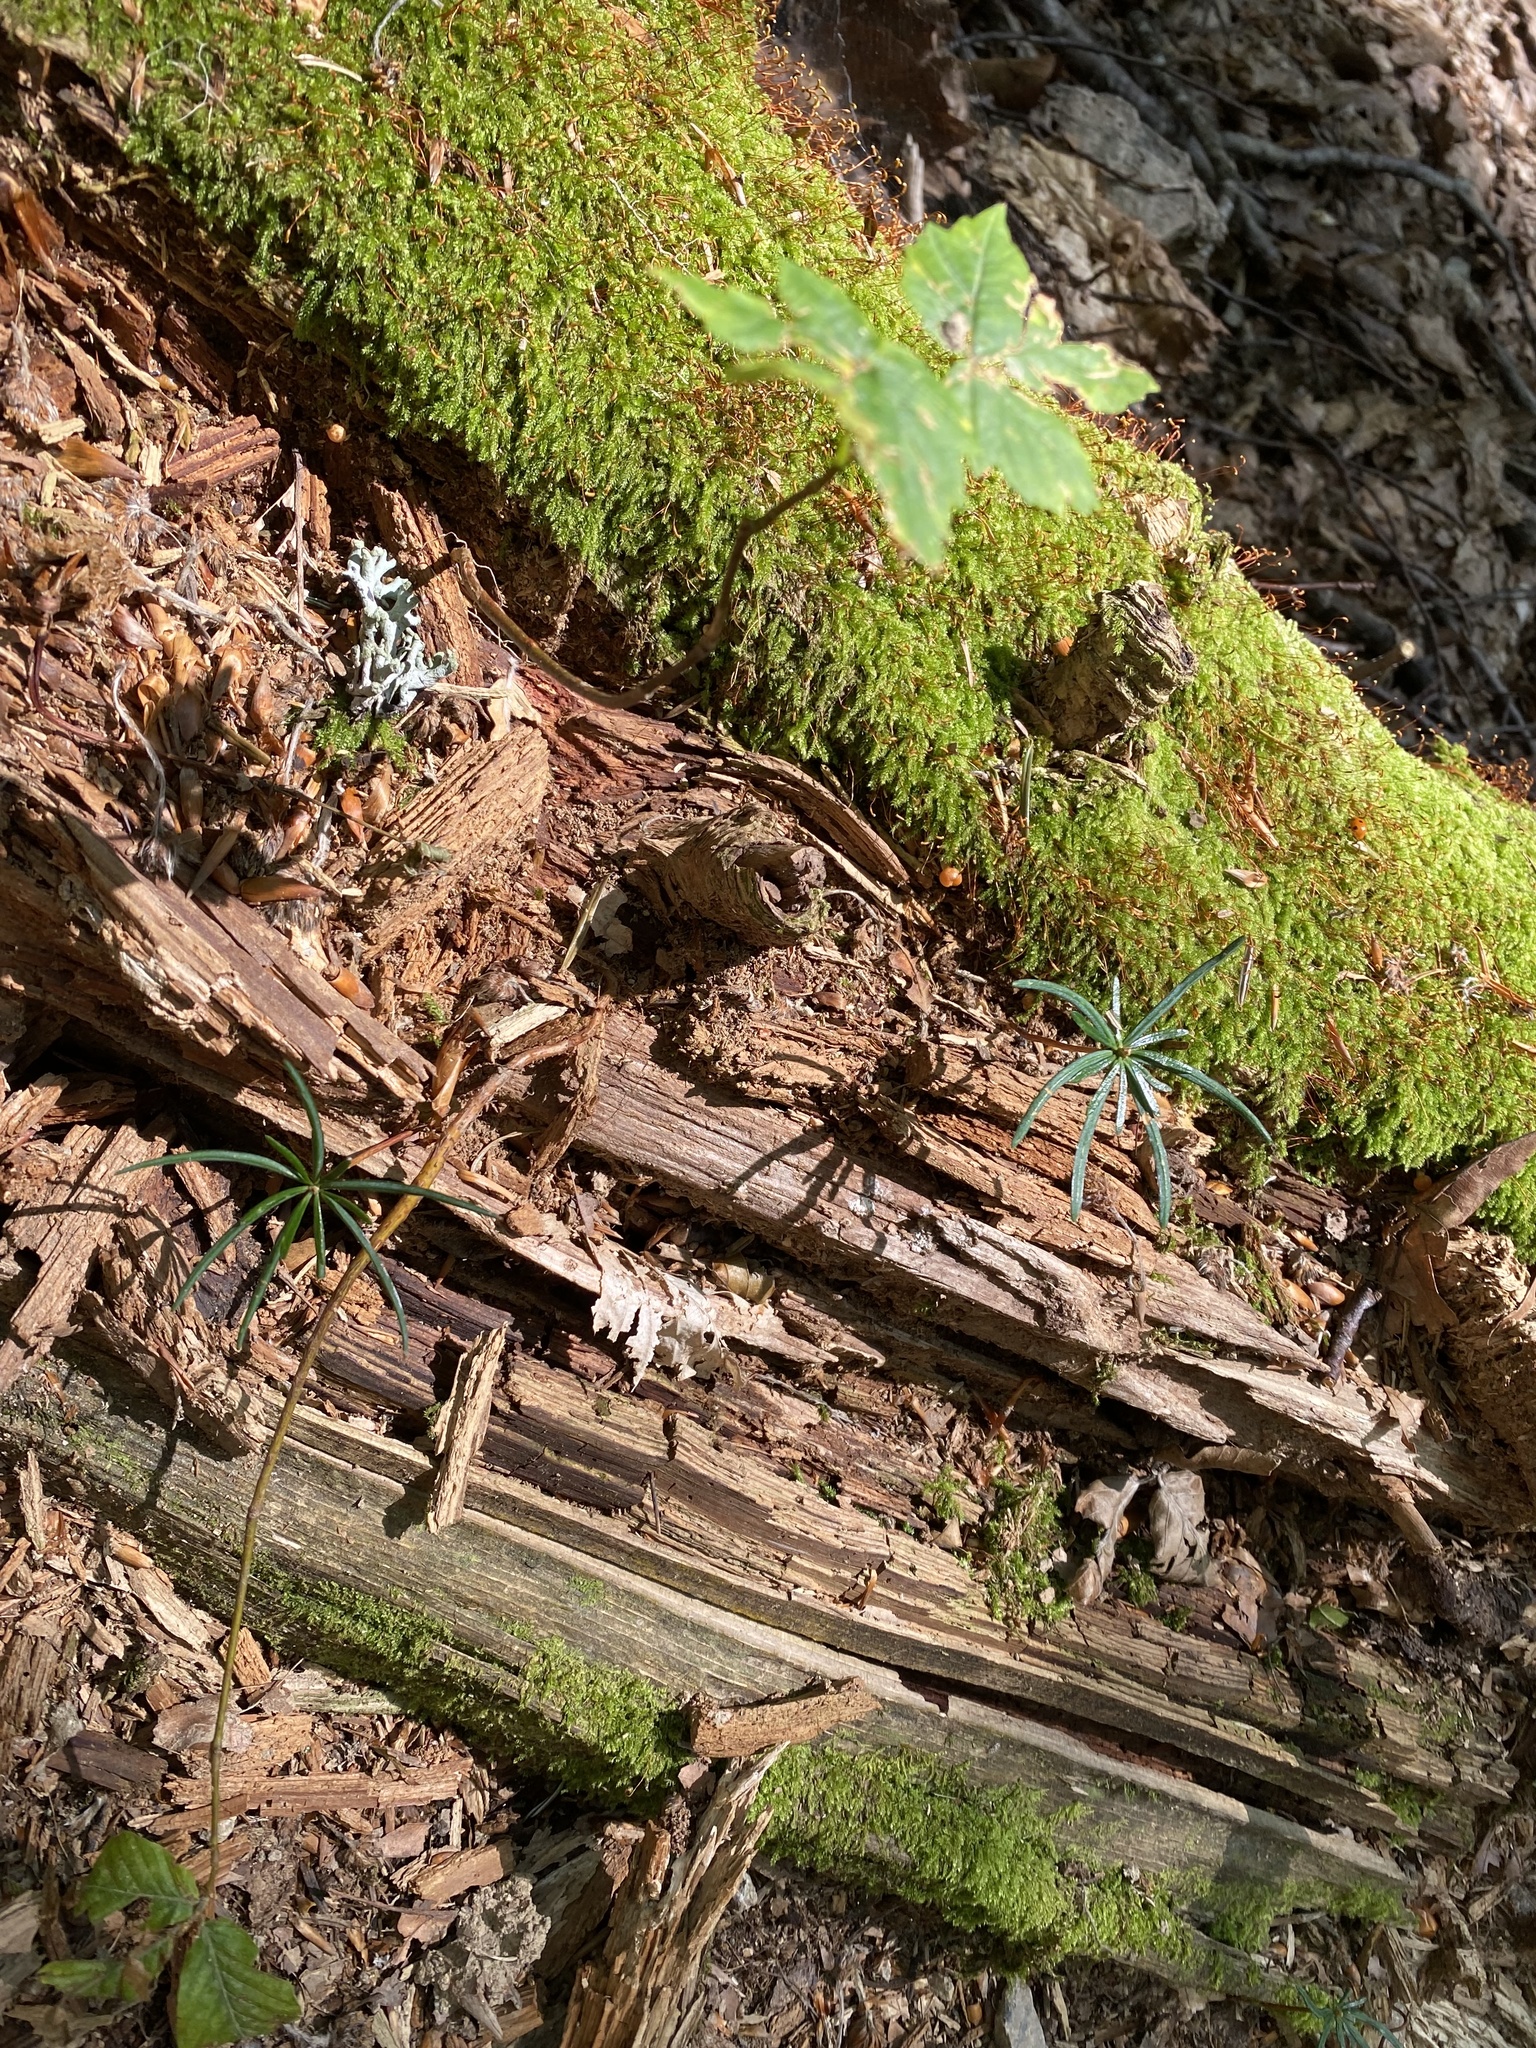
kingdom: Plantae
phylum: Tracheophyta
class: Pinopsida
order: Pinales
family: Taxaceae
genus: Taxus
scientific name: Taxus baccata
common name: Yew
